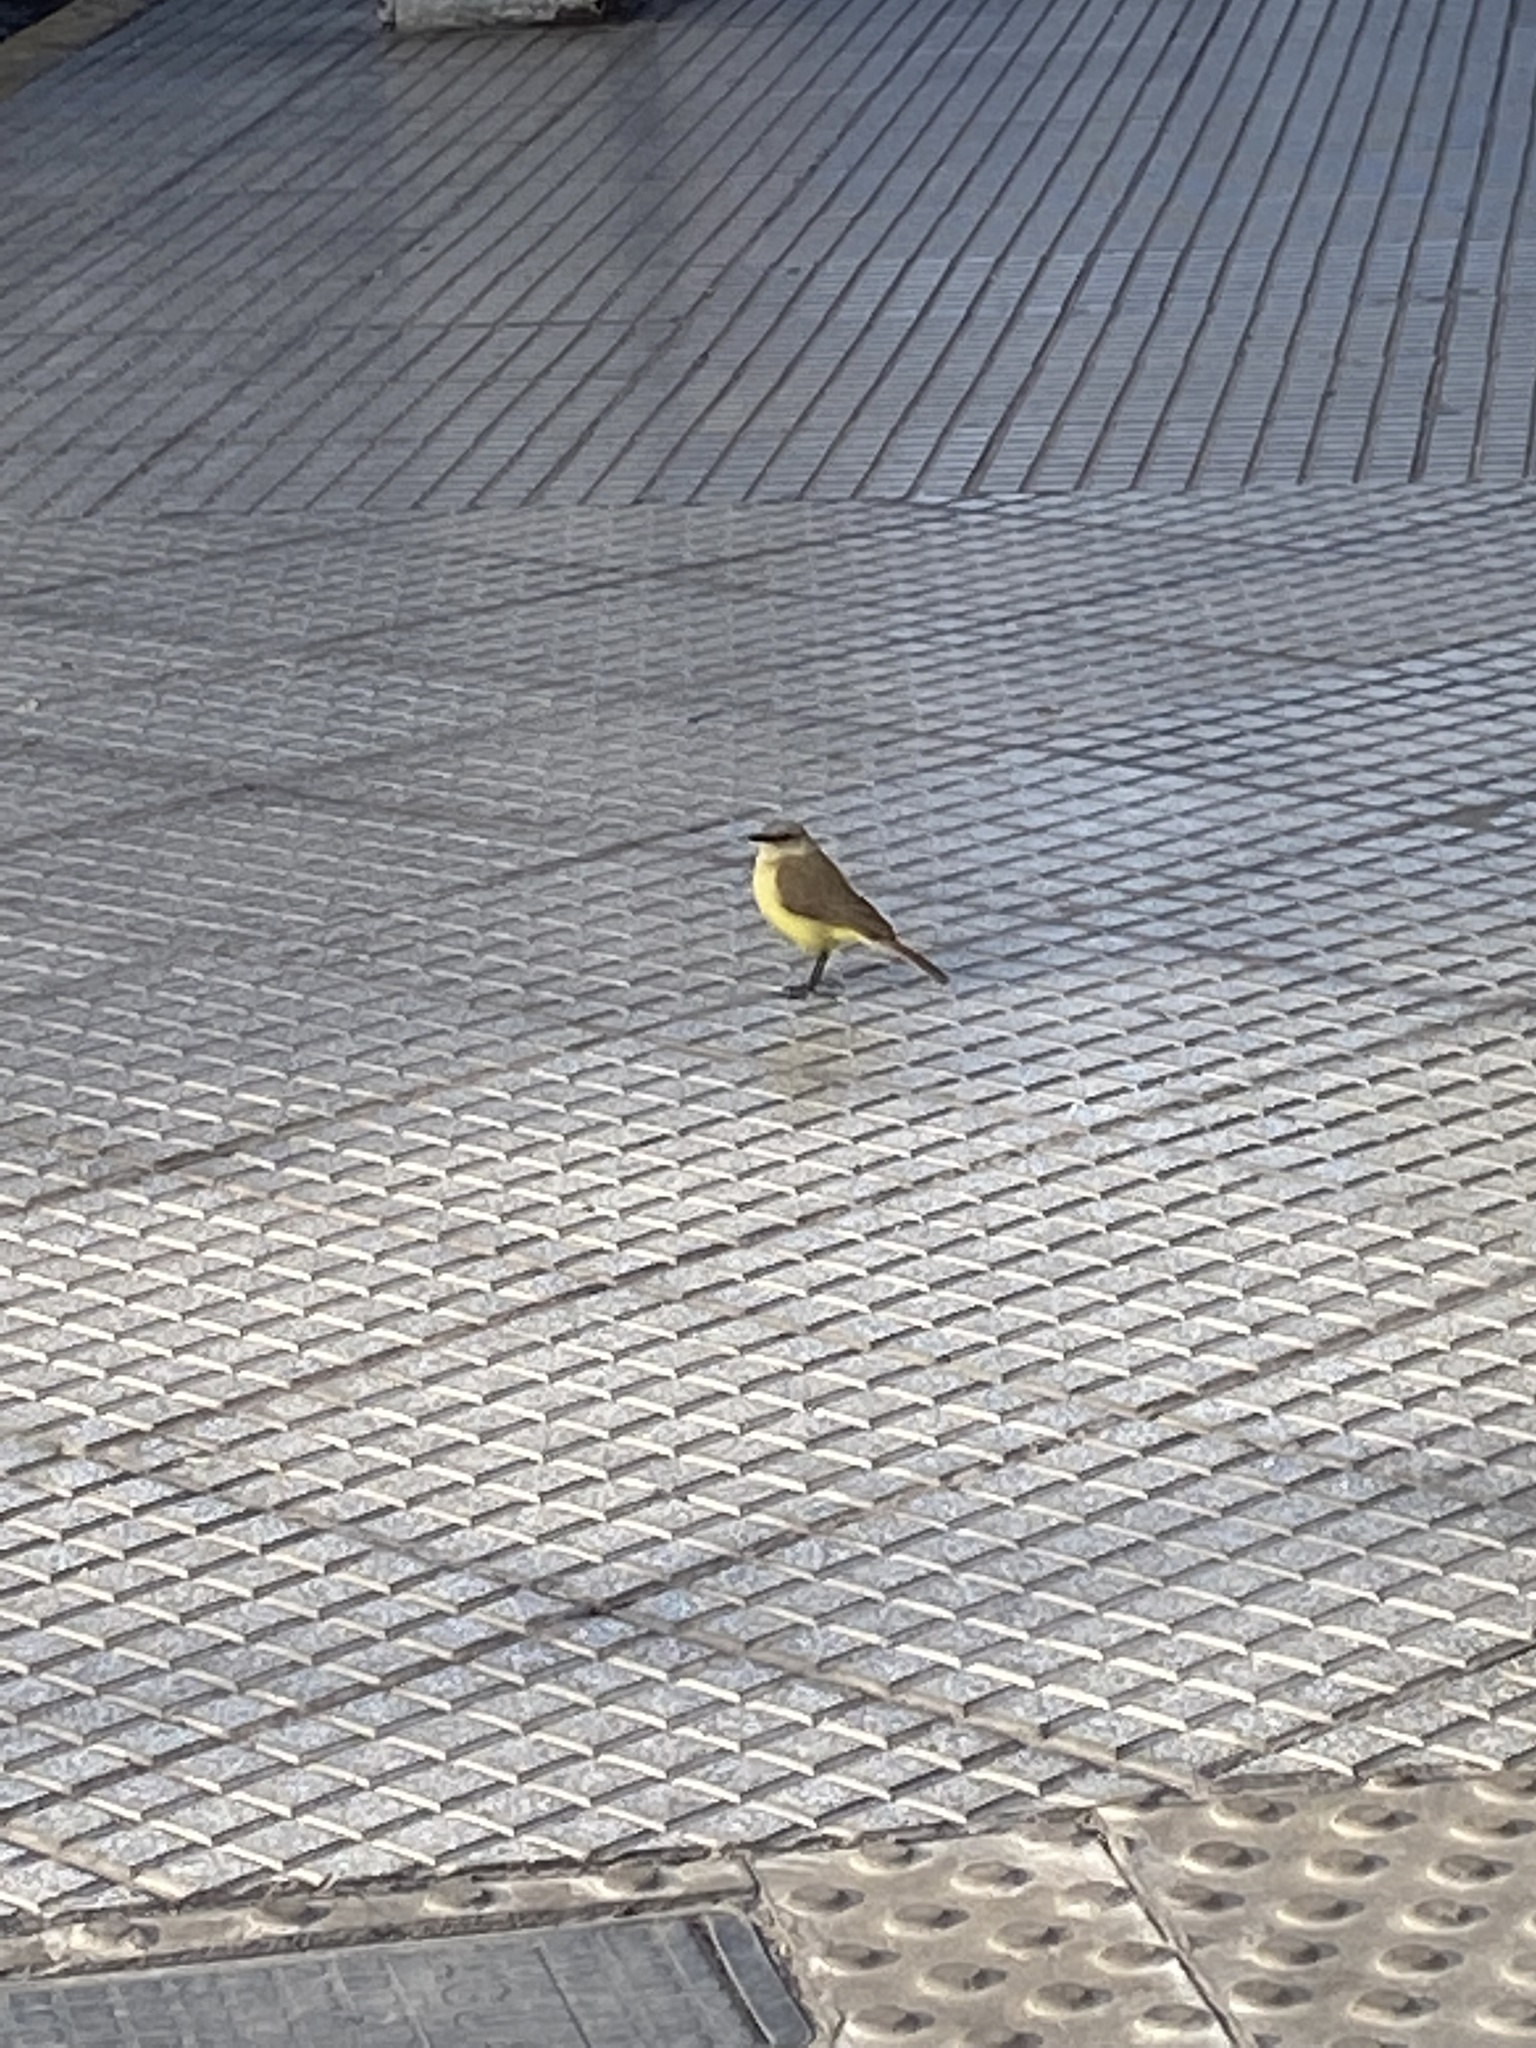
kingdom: Animalia
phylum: Chordata
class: Aves
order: Passeriformes
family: Tyrannidae
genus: Machetornis
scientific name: Machetornis rixosa
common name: Cattle tyrant
